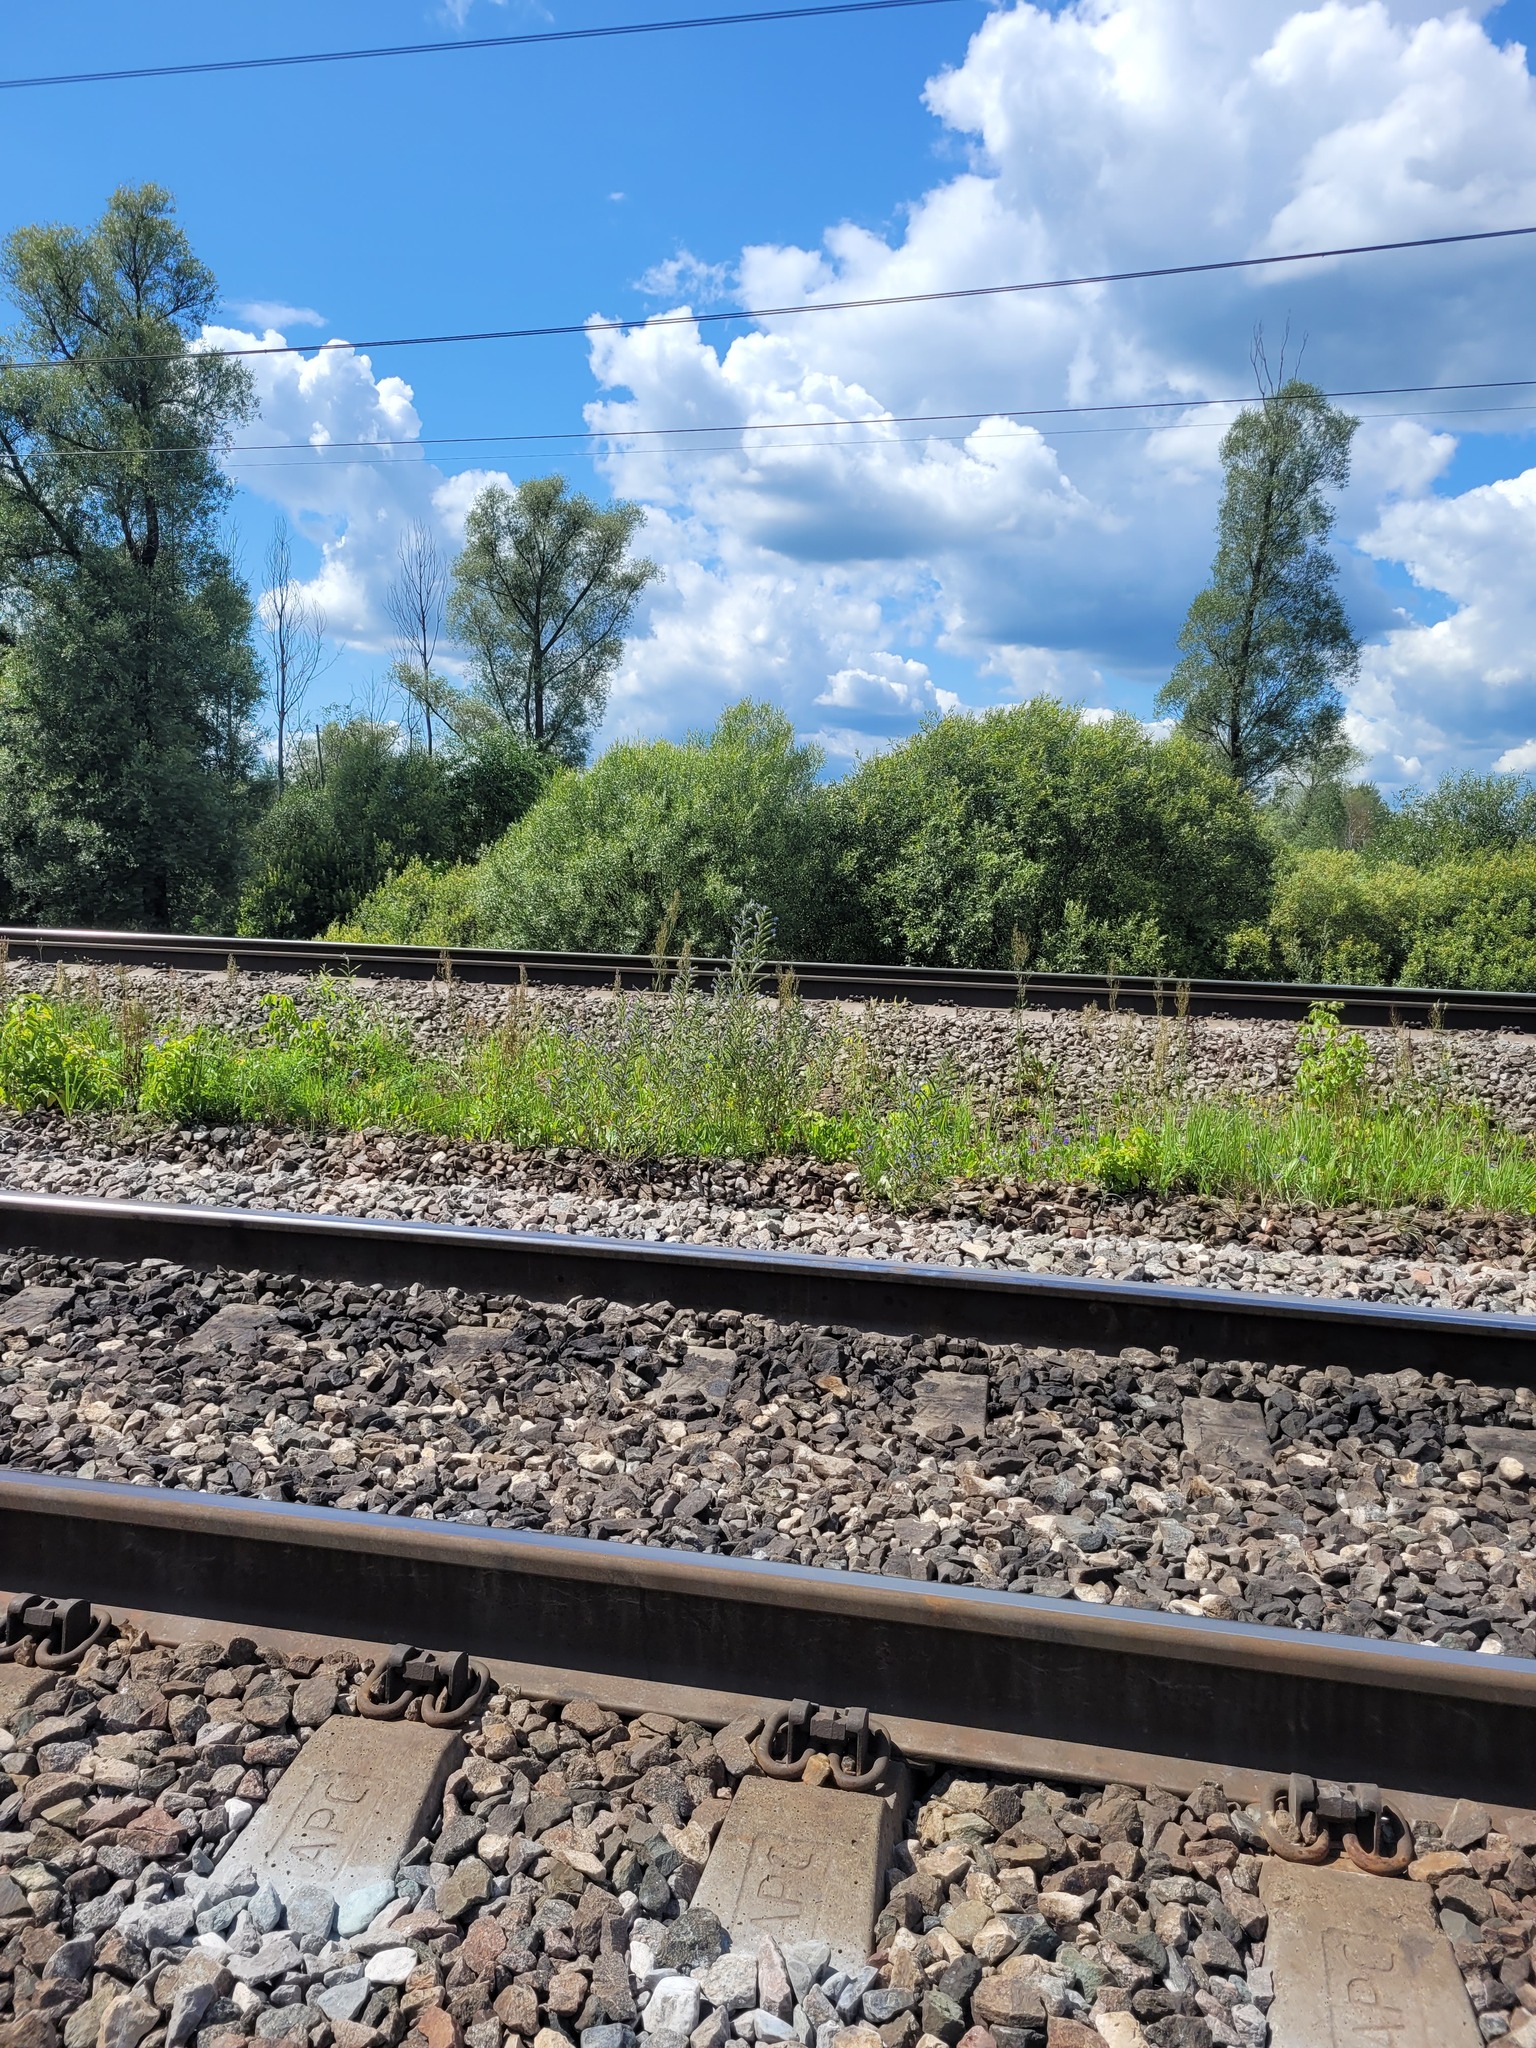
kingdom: Plantae
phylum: Tracheophyta
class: Magnoliopsida
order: Boraginales
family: Boraginaceae
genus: Echium
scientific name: Echium vulgare
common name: Common viper's bugloss
